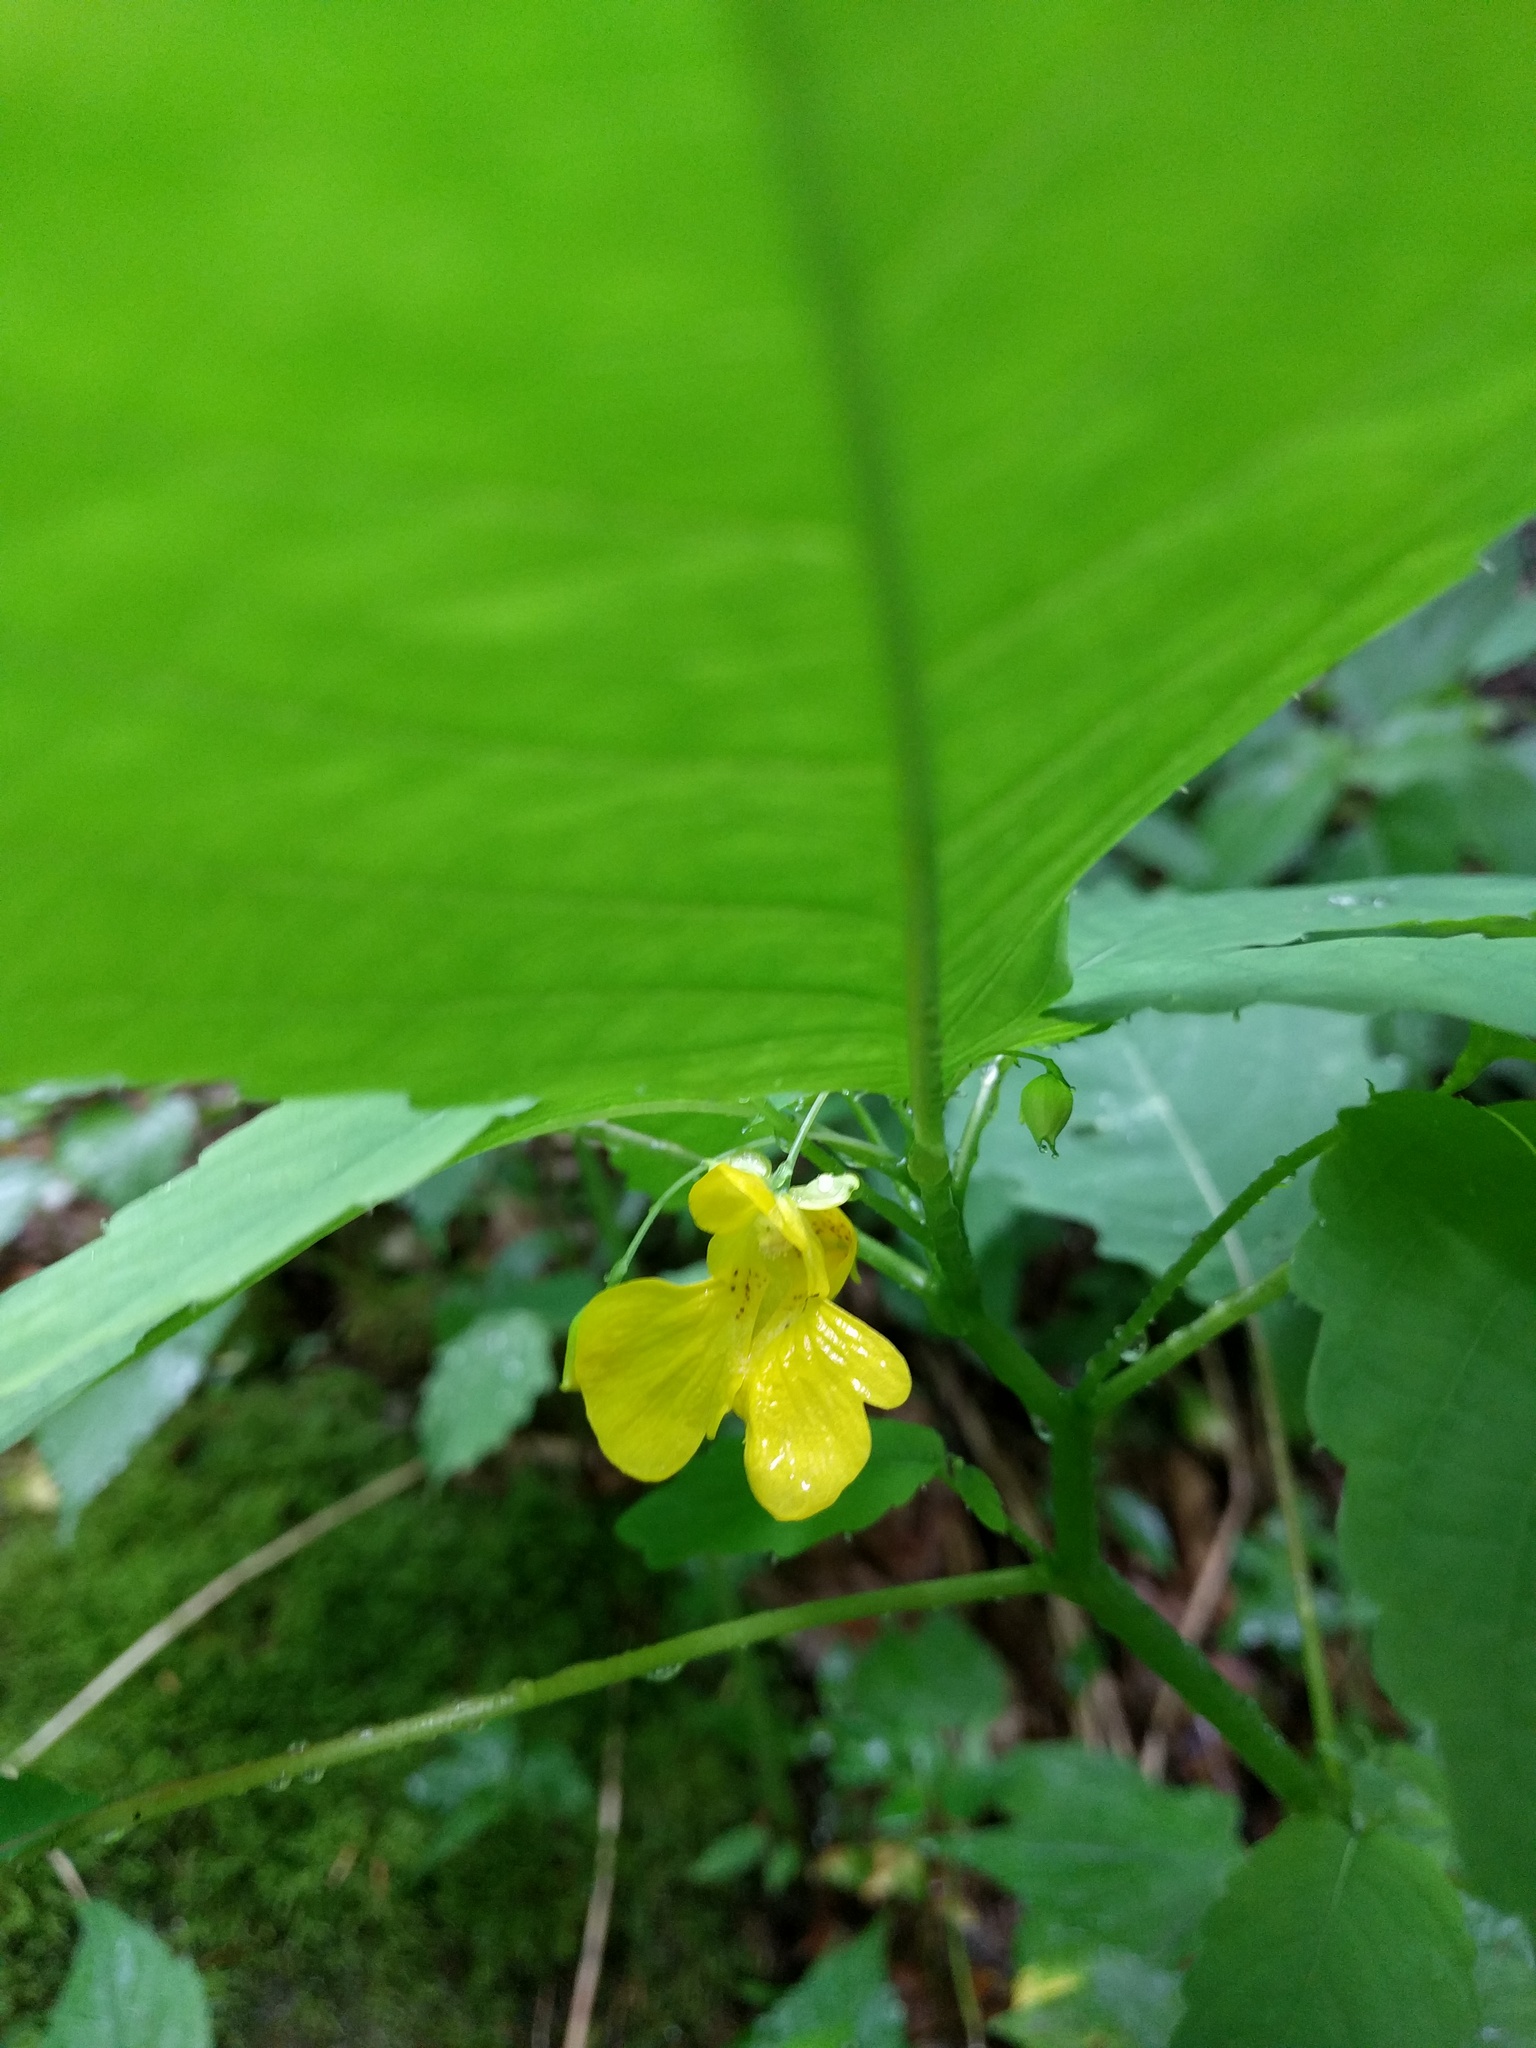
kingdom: Plantae
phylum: Tracheophyta
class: Magnoliopsida
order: Ericales
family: Balsaminaceae
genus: Impatiens
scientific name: Impatiens pallida
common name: Pale snapweed
